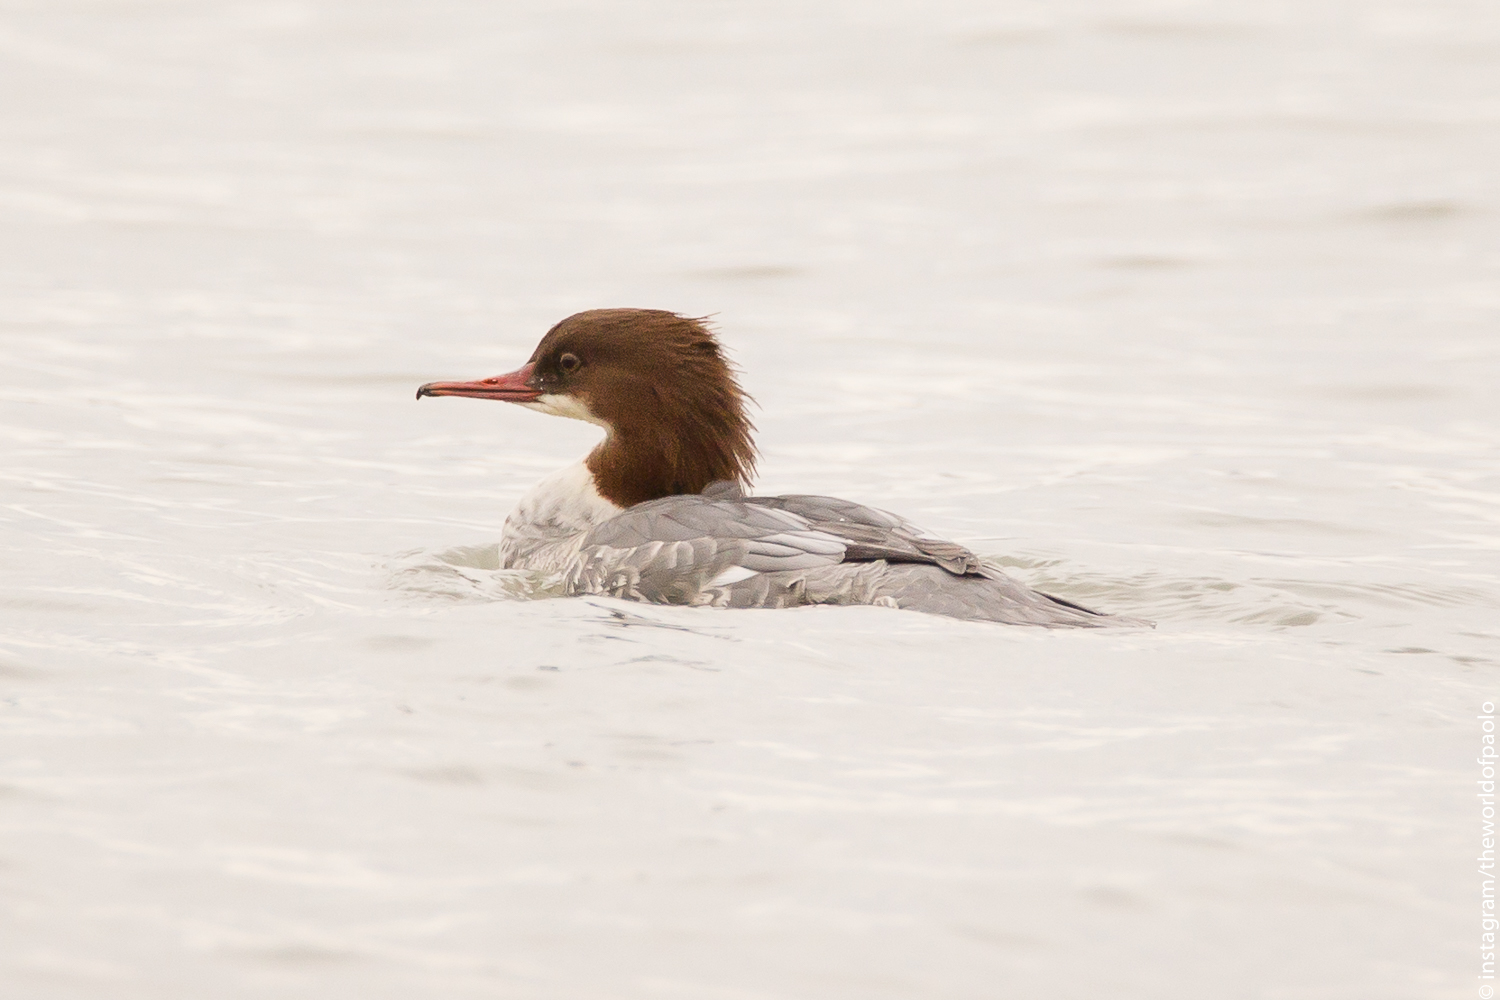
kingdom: Animalia
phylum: Chordata
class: Aves
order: Anseriformes
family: Anatidae
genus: Mergus
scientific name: Mergus merganser
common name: Common merganser
